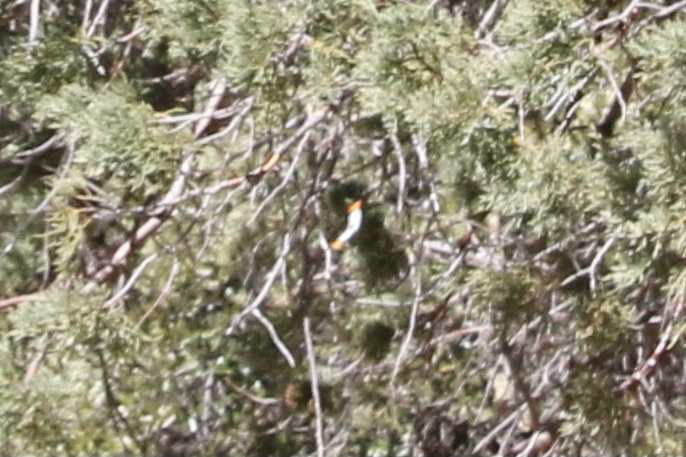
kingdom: Animalia
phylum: Arthropoda
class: Insecta
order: Lepidoptera
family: Pieridae
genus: Anthocharis
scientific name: Anthocharis thoosa
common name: Southwestern orangetip
